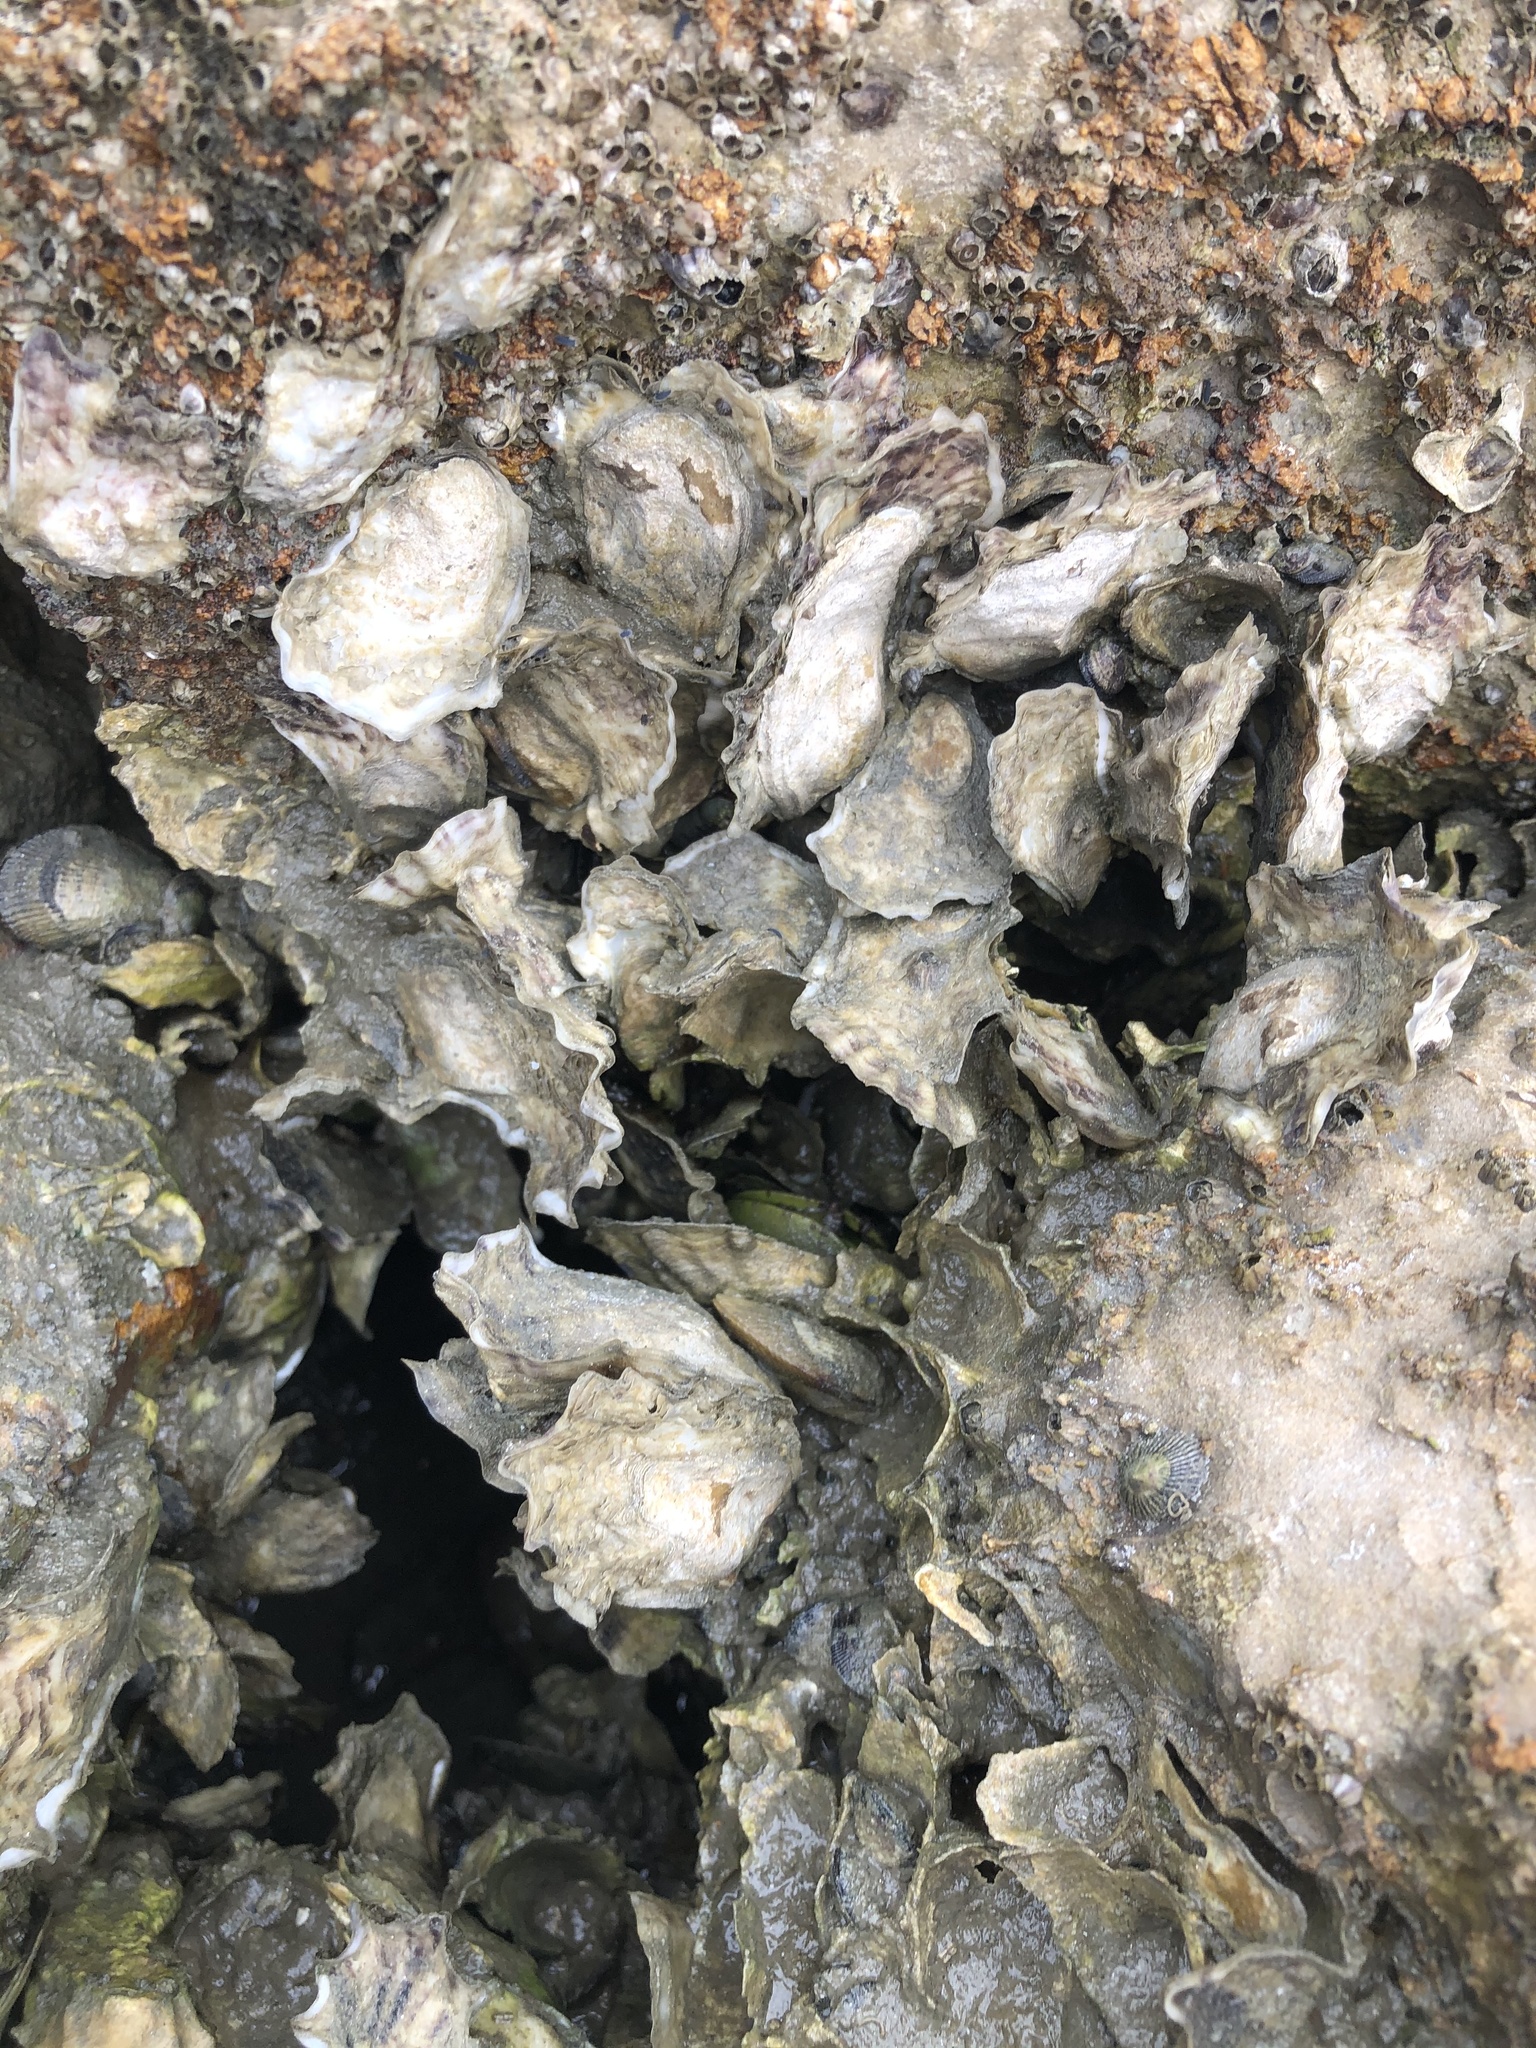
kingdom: Animalia
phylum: Mollusca
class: Bivalvia
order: Ostreida
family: Ostreidae
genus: Crassostrea
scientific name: Crassostrea virginica
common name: American oyster
